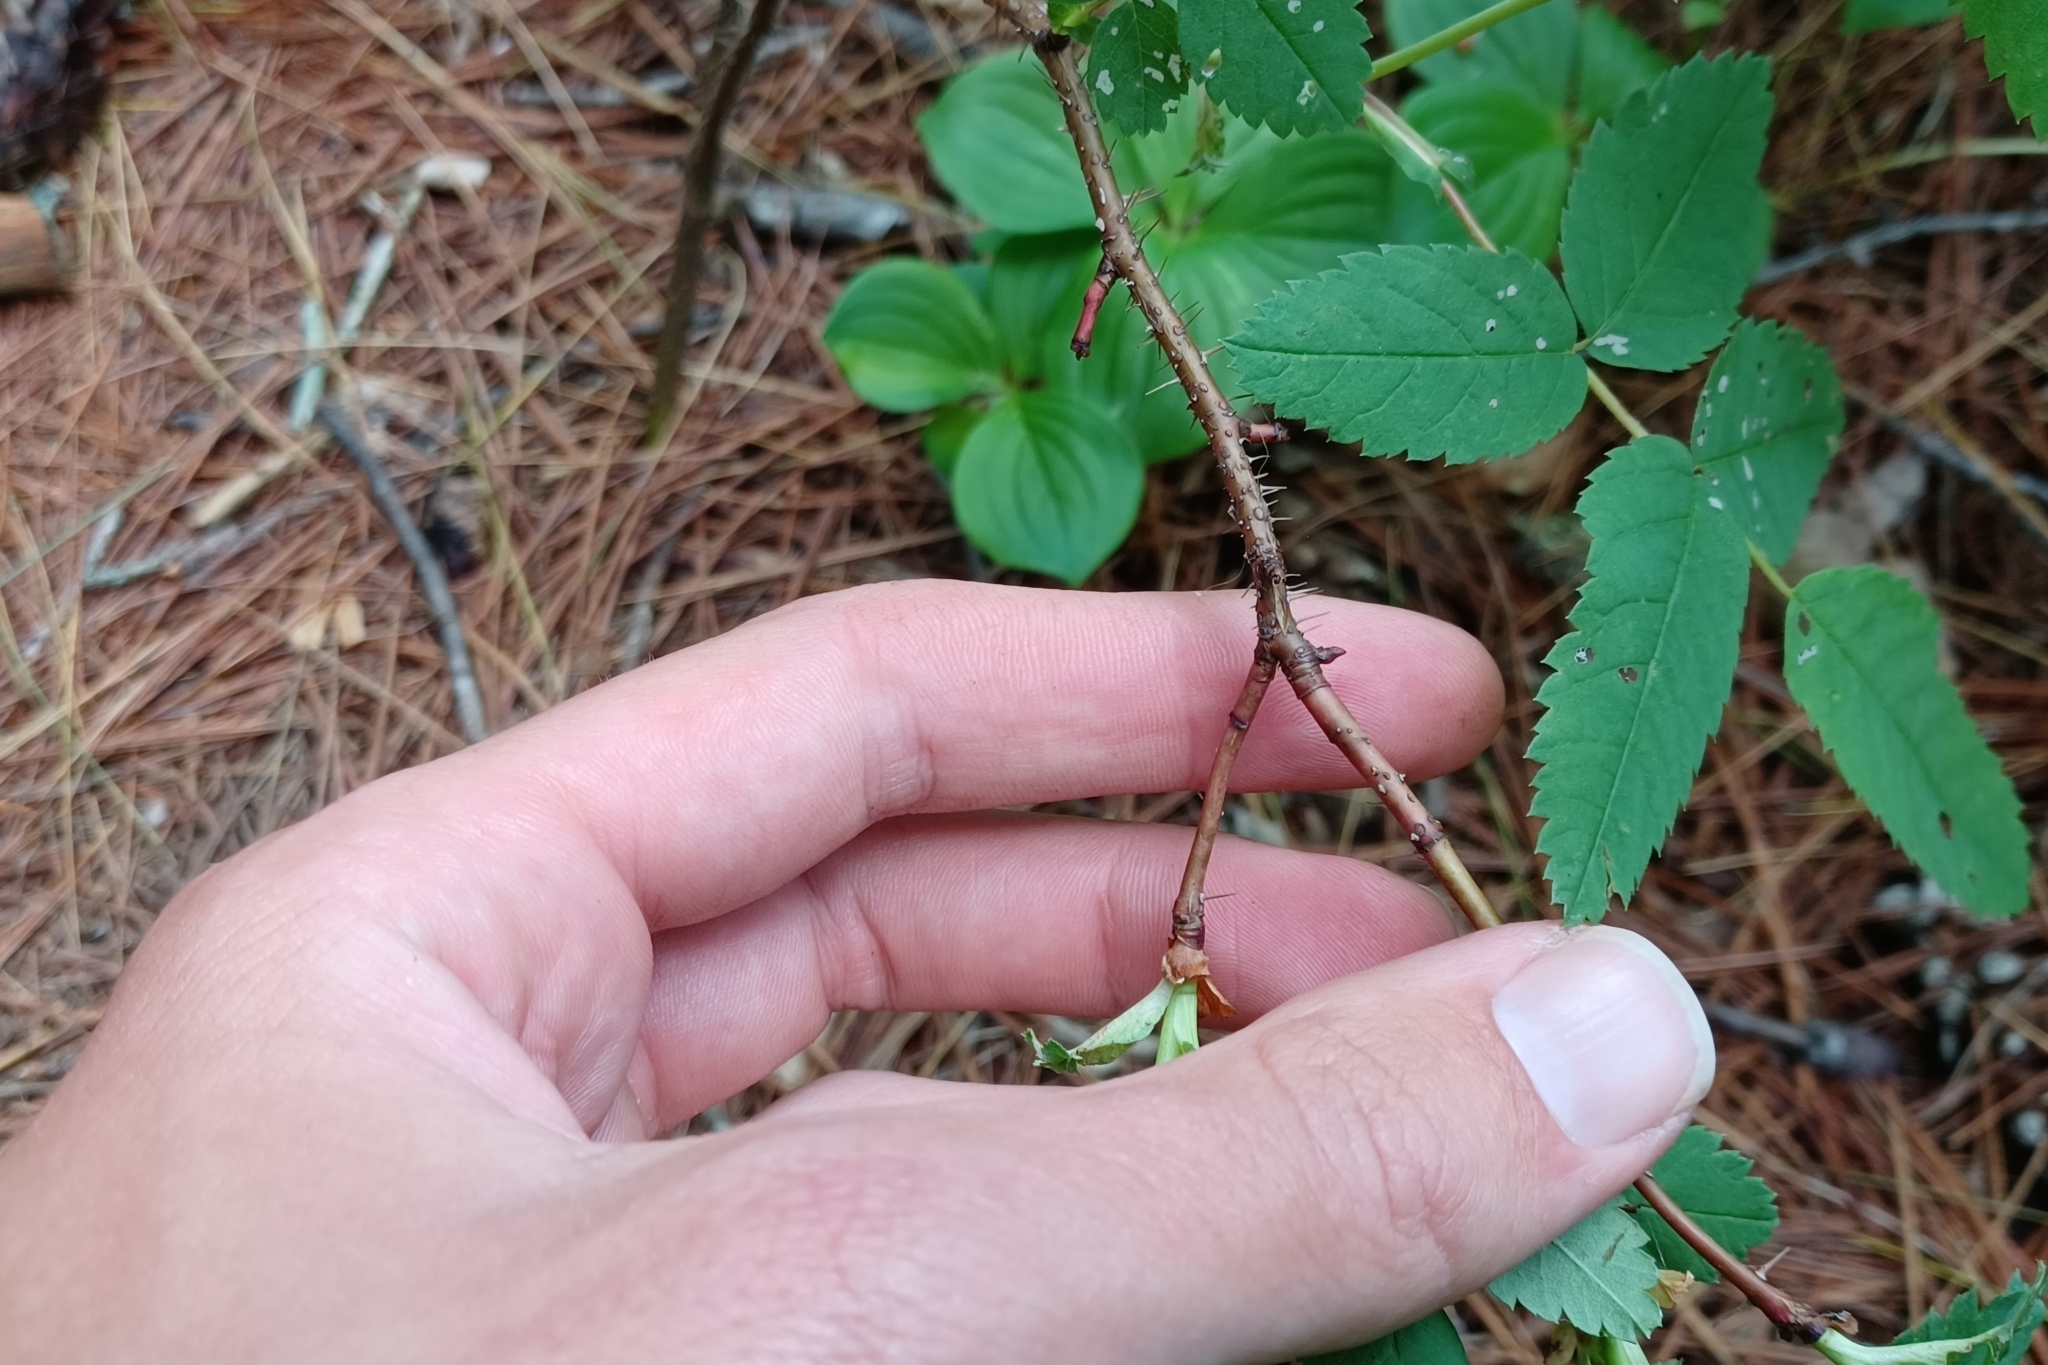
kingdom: Plantae
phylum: Tracheophyta
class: Magnoliopsida
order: Rosales
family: Rosaceae
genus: Rosa
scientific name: Rosa acicularis
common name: Prickly rose
